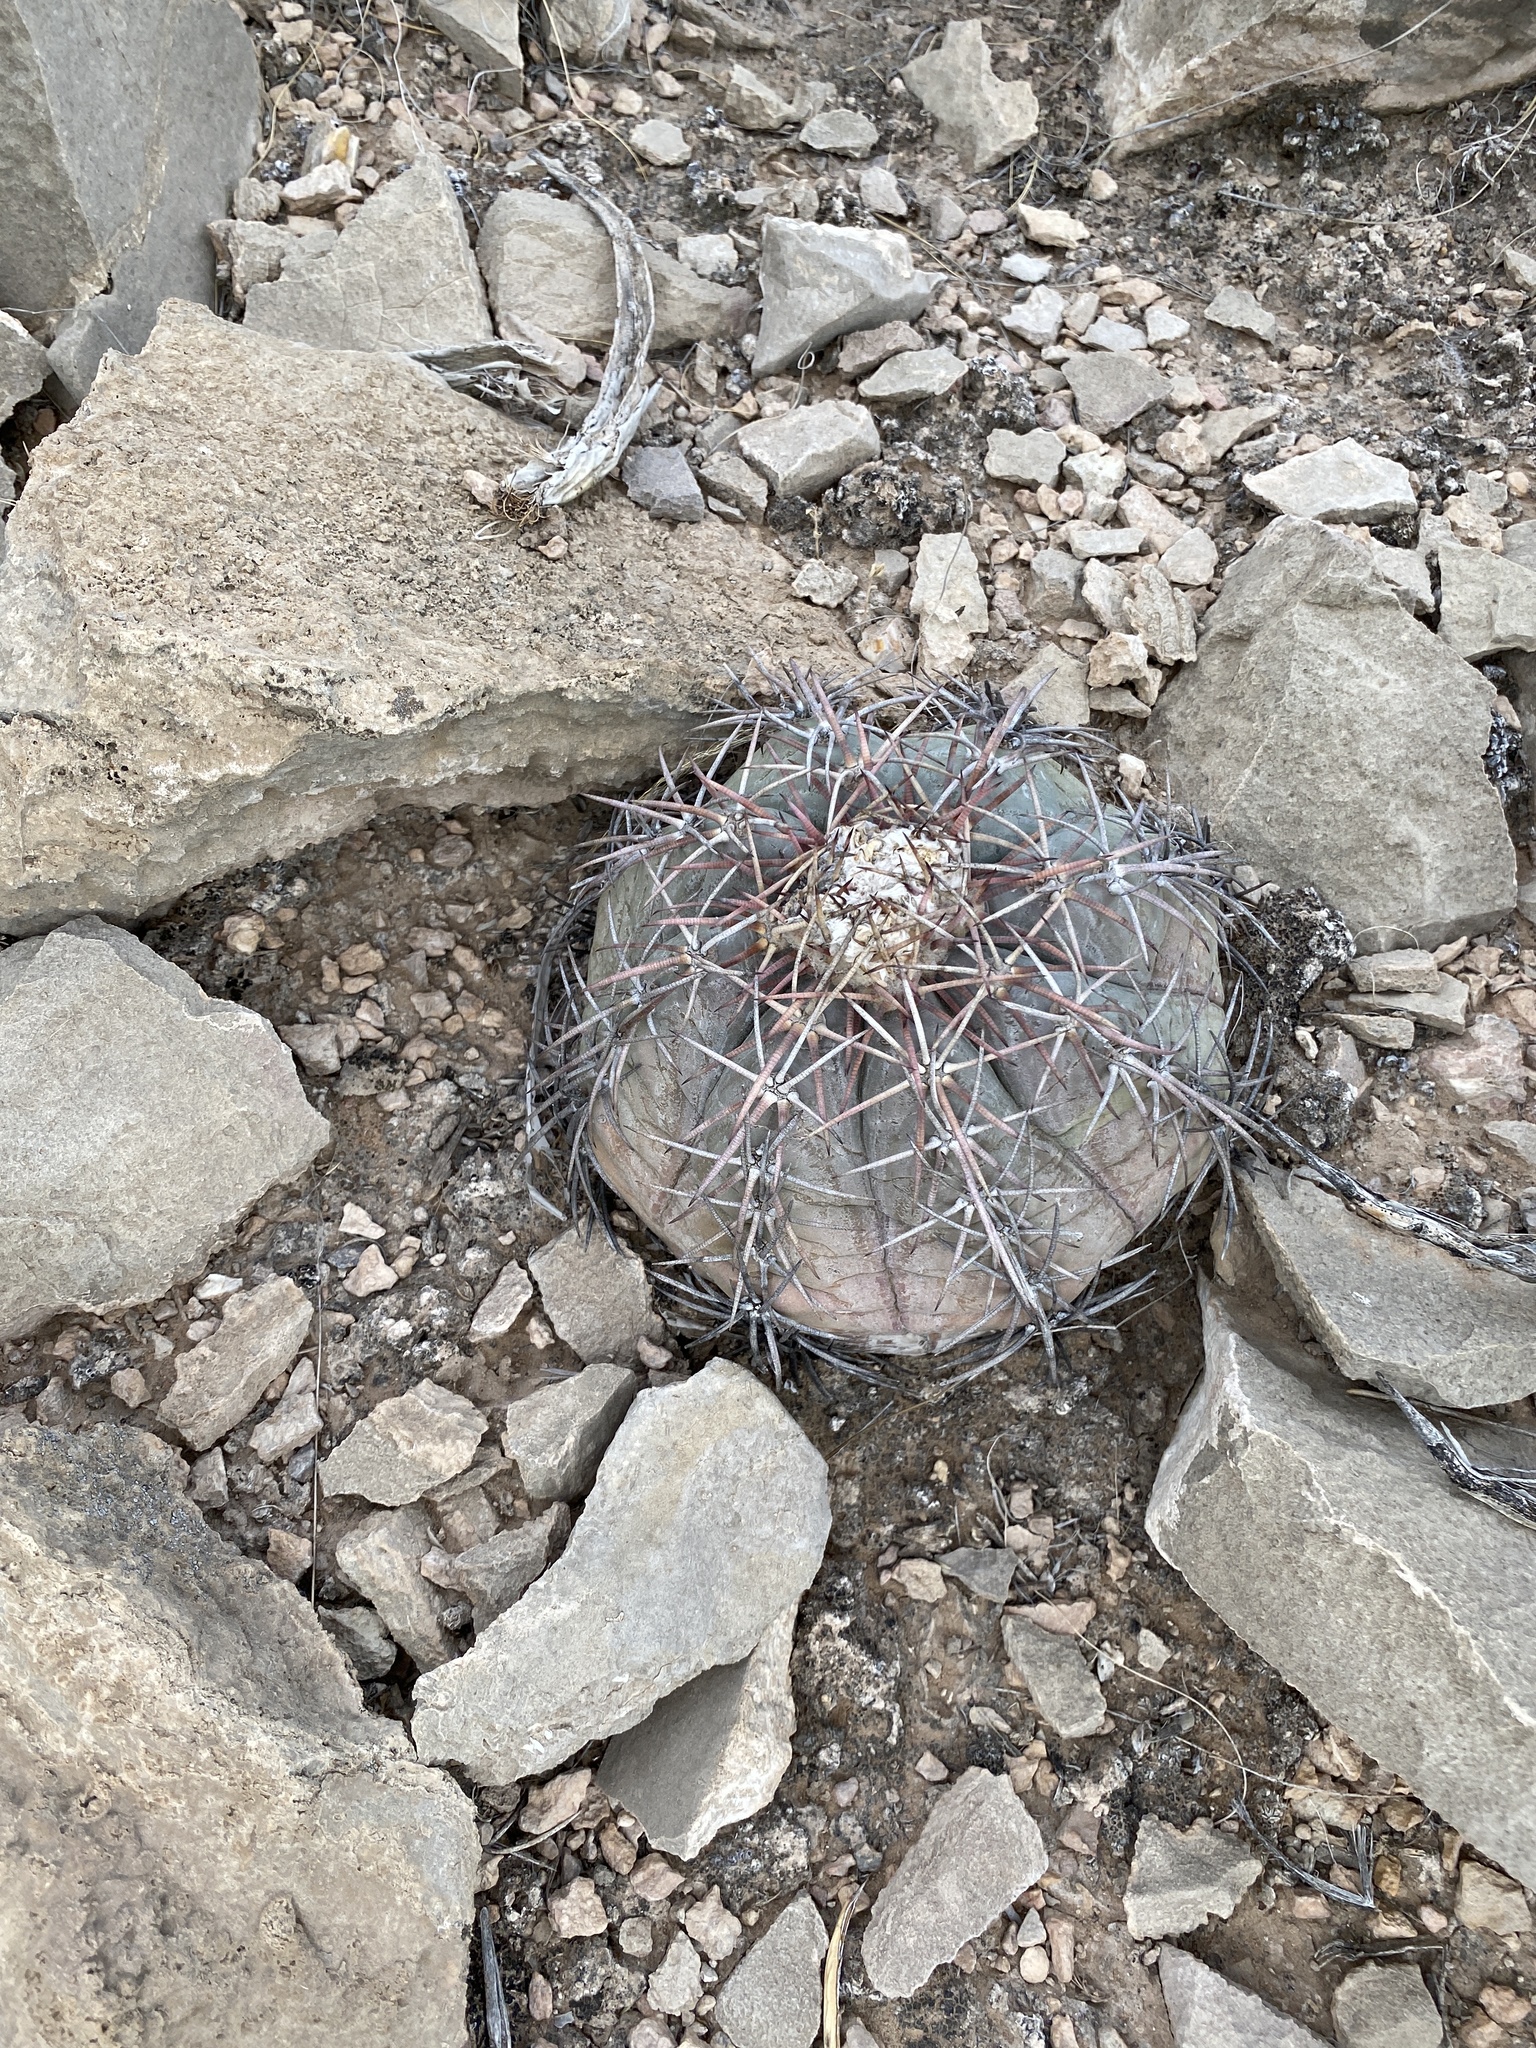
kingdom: Plantae
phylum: Tracheophyta
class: Magnoliopsida
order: Caryophyllales
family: Cactaceae
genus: Echinocactus
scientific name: Echinocactus horizonthalonius
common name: Devilshead
